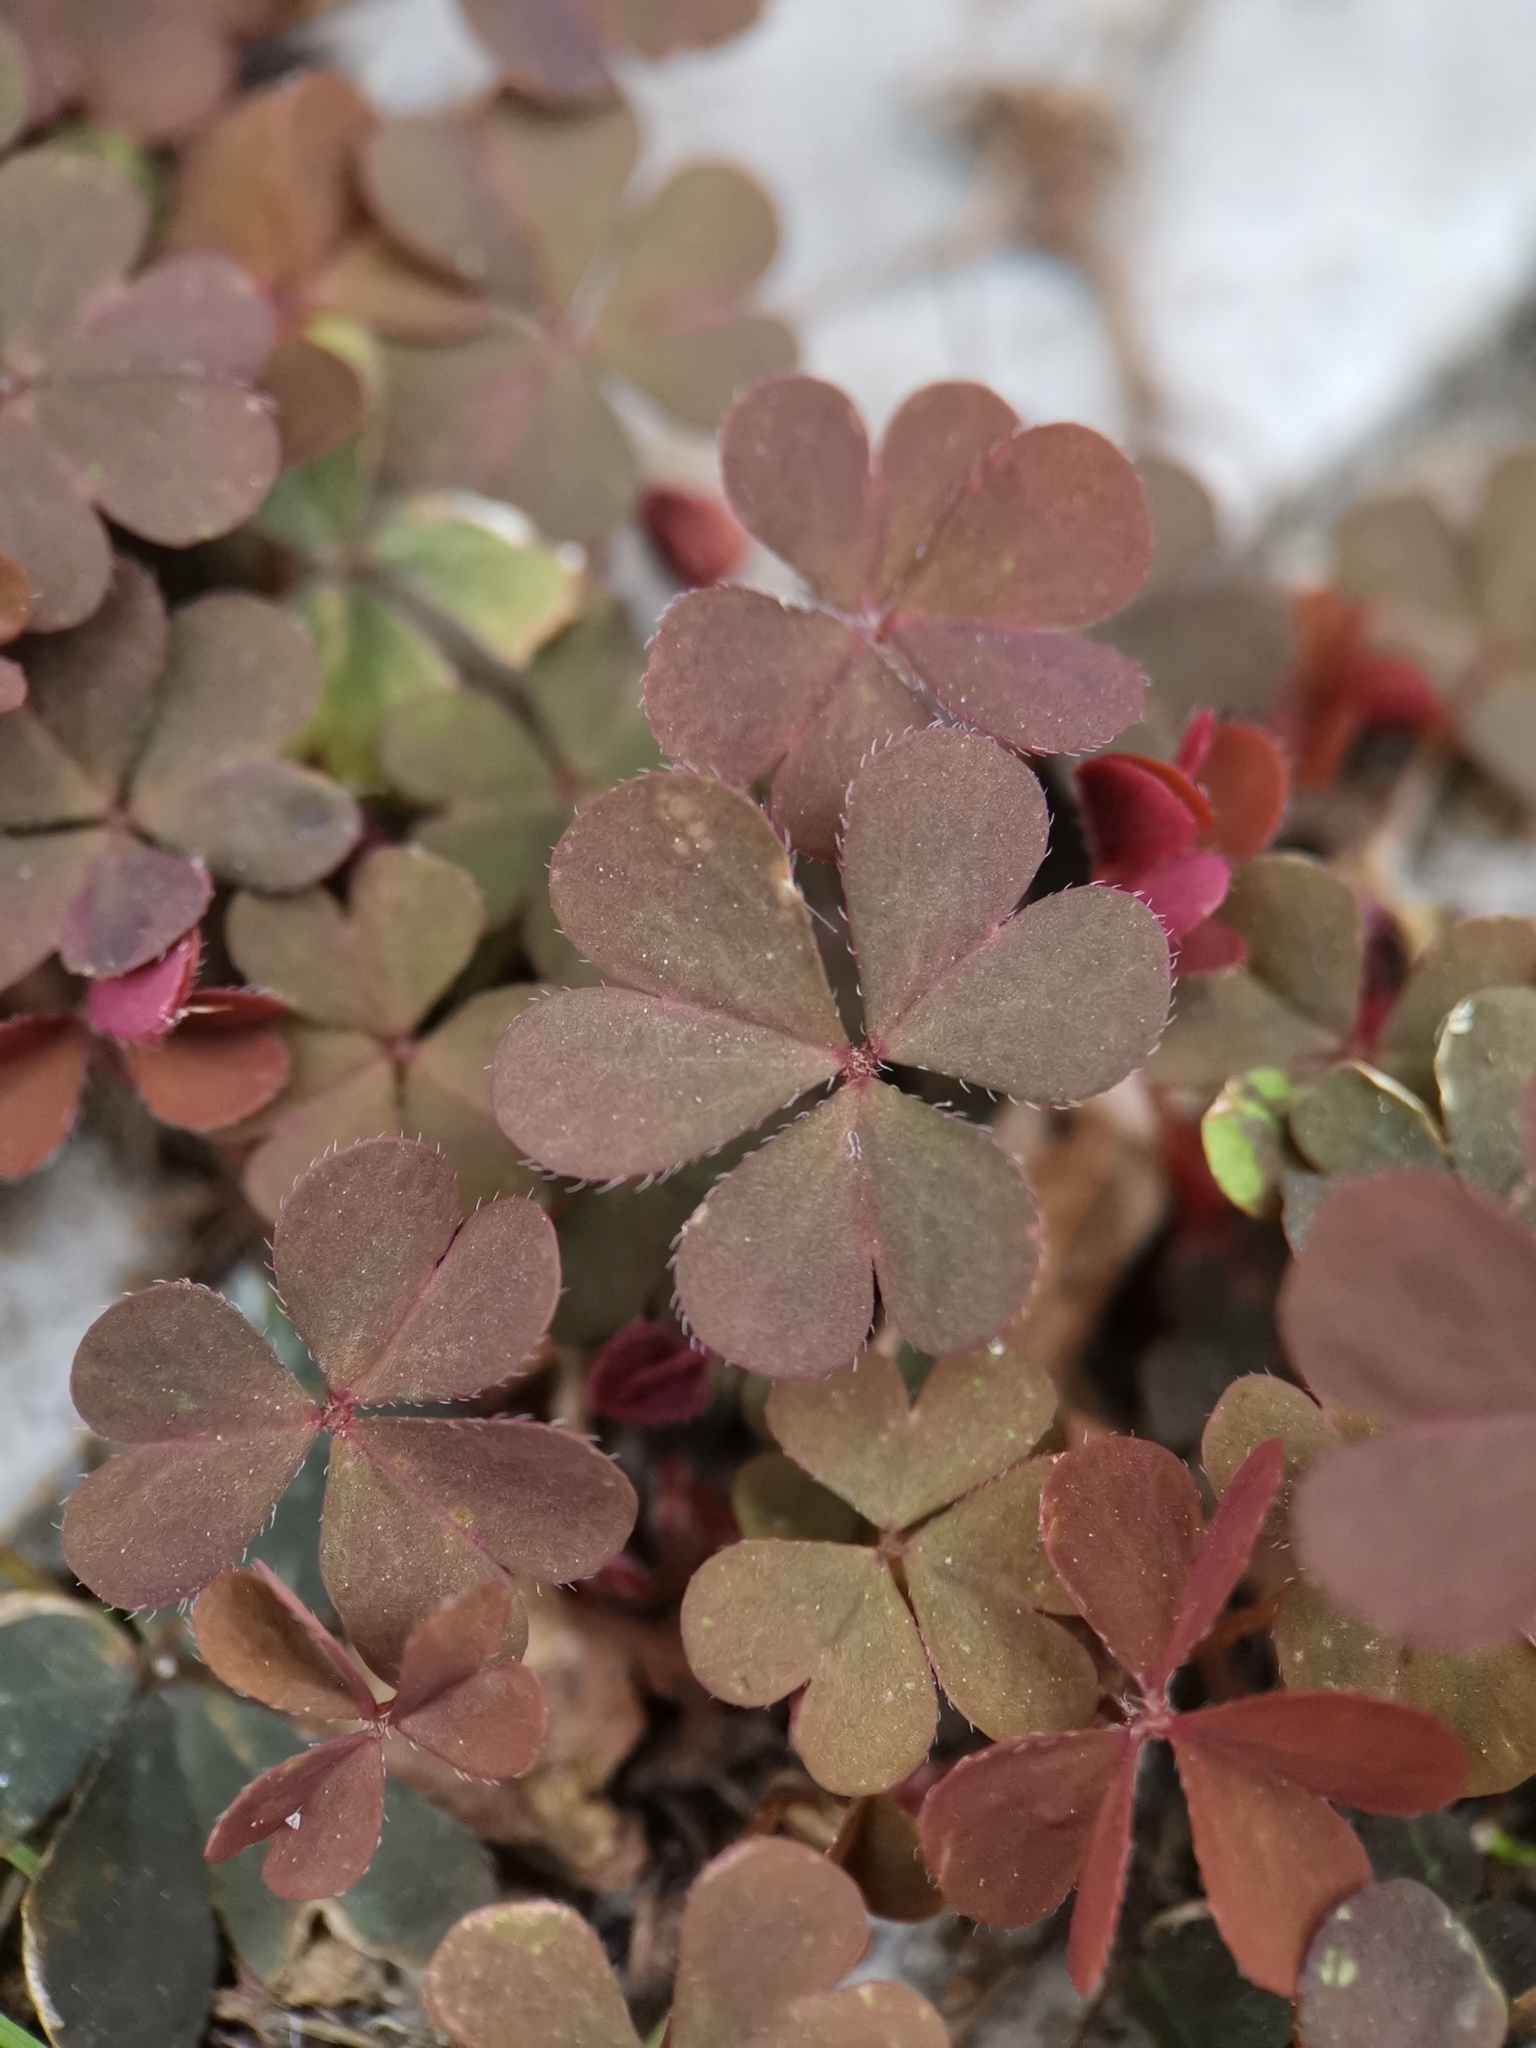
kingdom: Plantae
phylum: Tracheophyta
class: Magnoliopsida
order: Oxalidales
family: Oxalidaceae
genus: Oxalis
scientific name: Oxalis corniculata
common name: Procumbent yellow-sorrel
